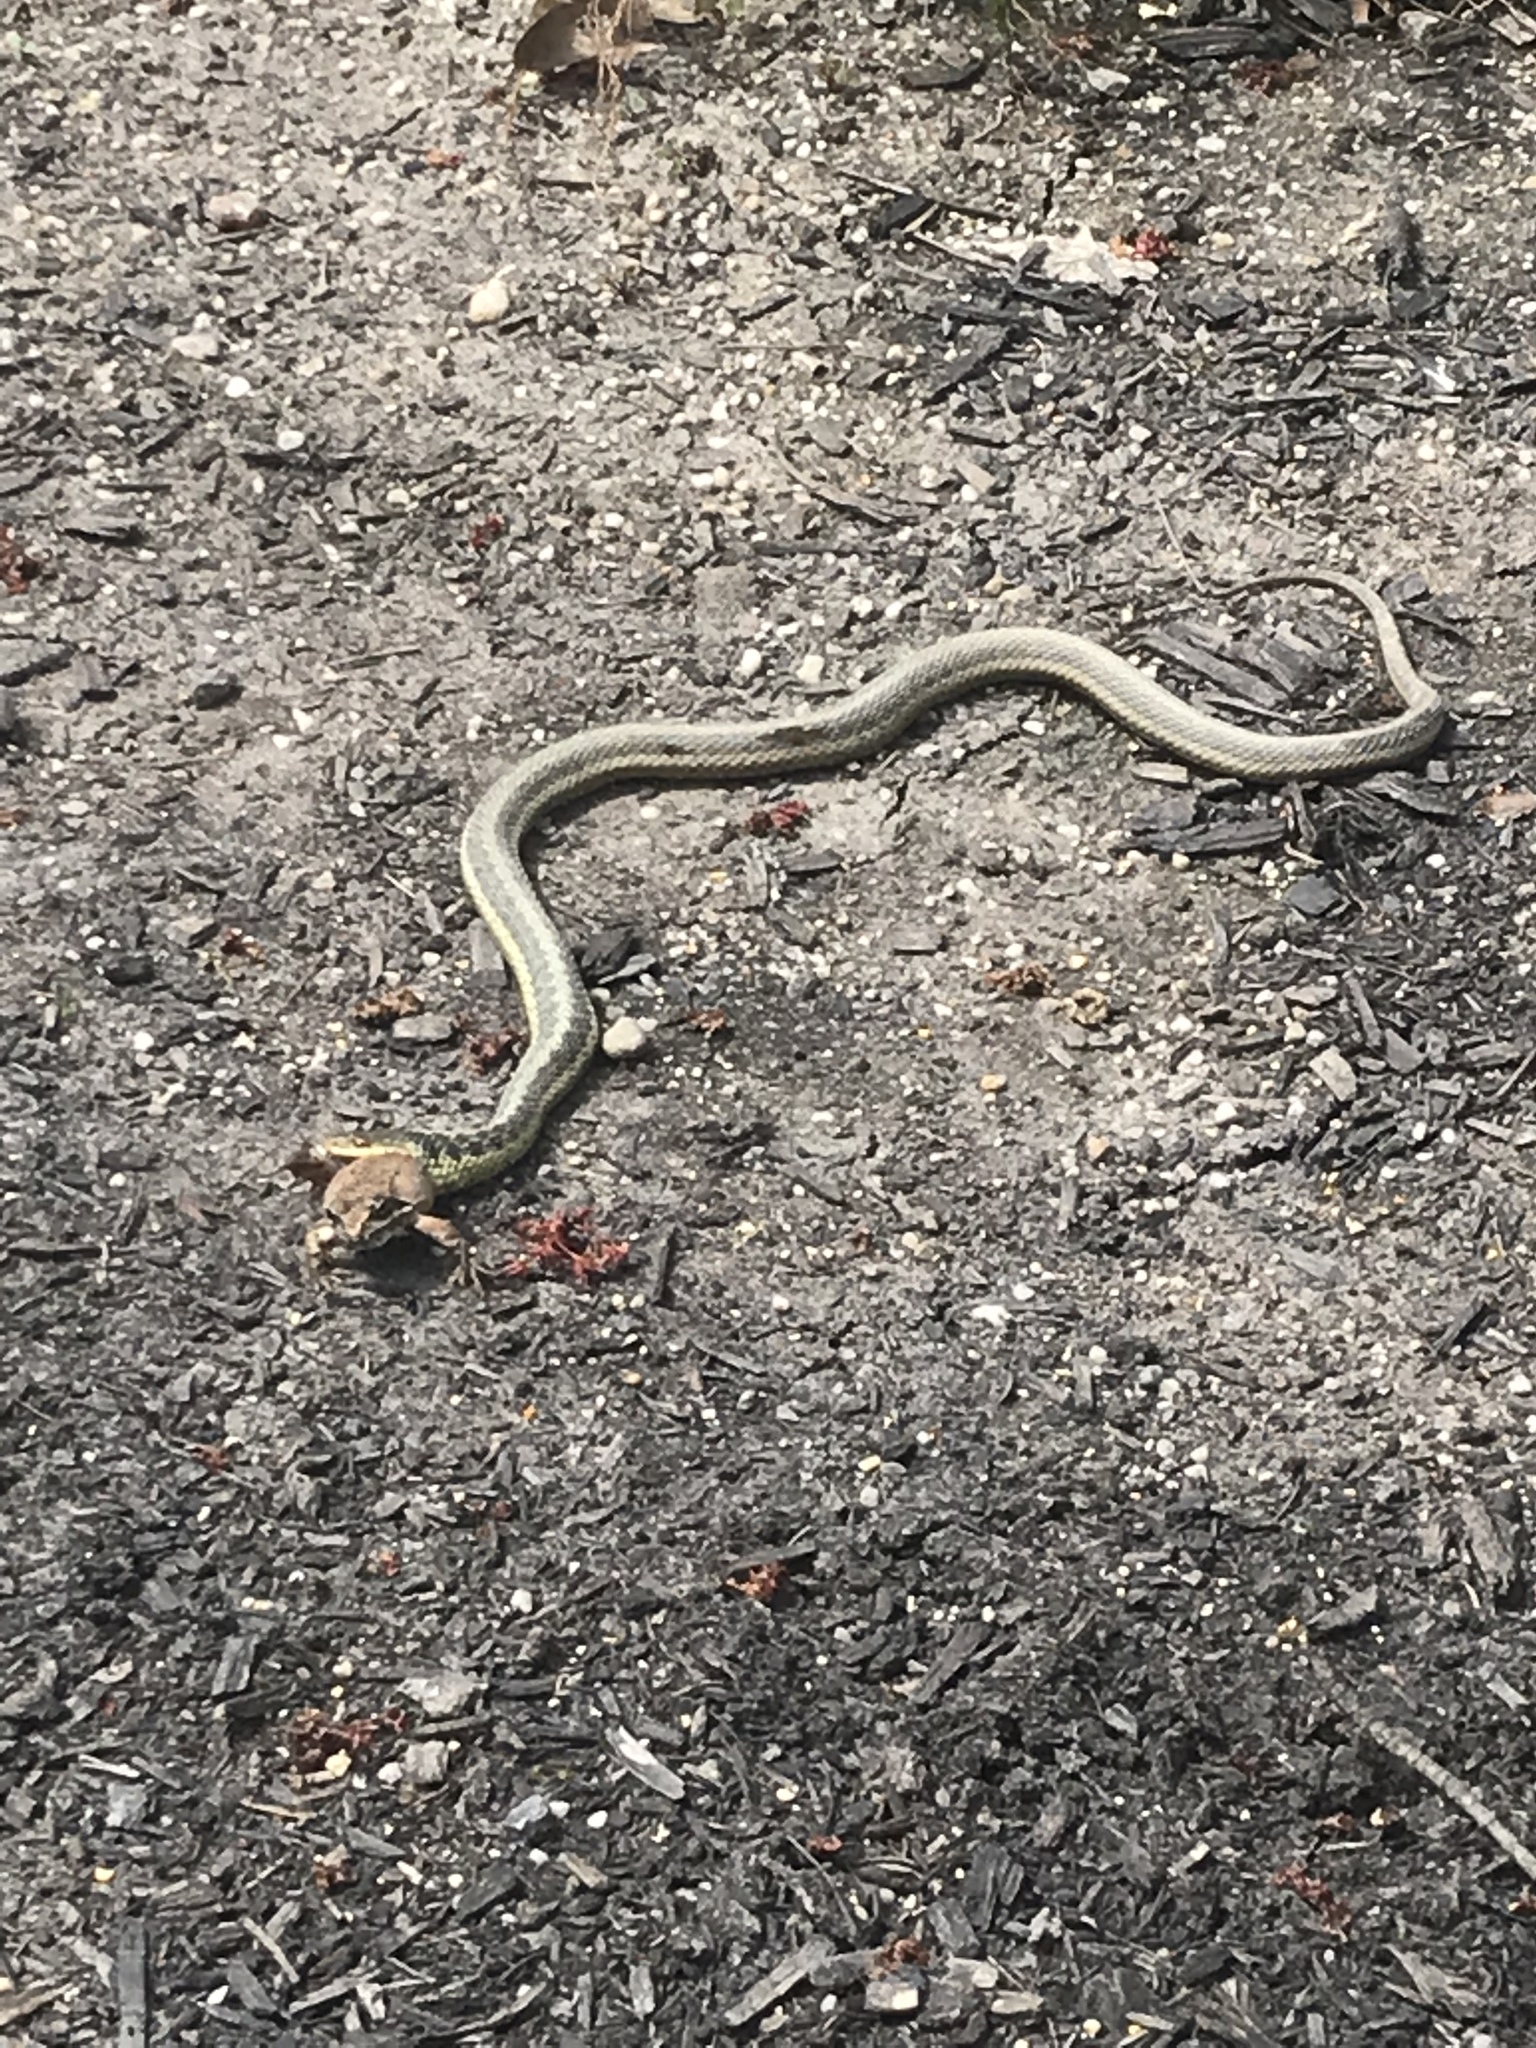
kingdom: Animalia
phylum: Chordata
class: Amphibia
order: Anura
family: Ranidae
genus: Lithobates
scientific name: Lithobates sylvaticus
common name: Wood frog
